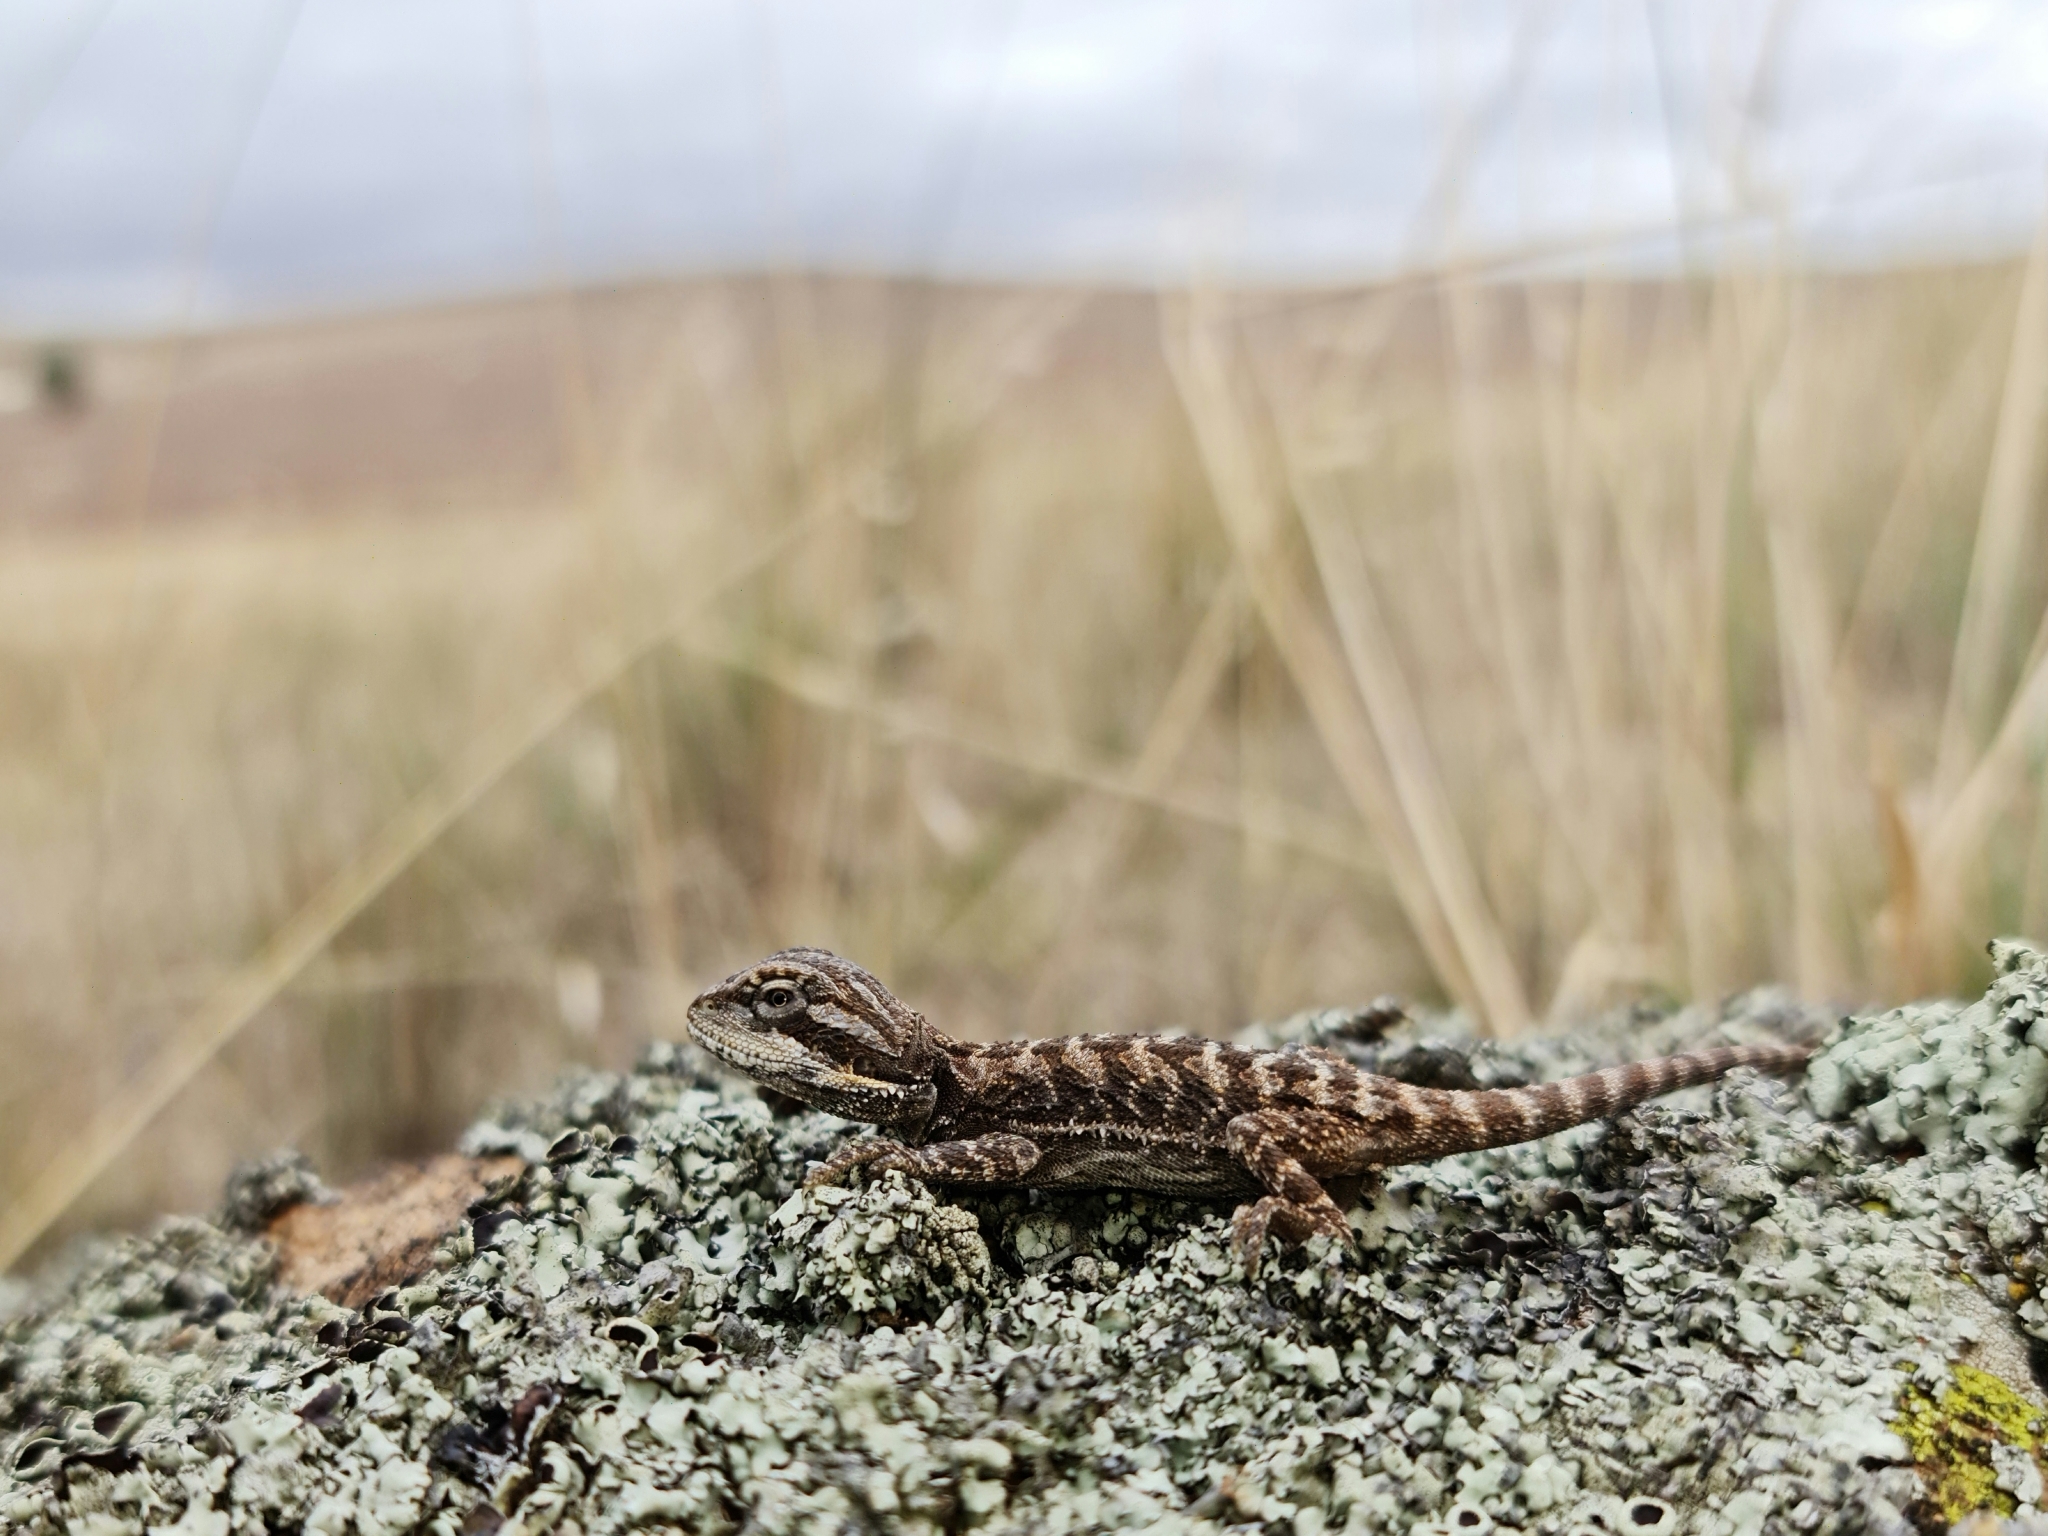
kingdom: Animalia
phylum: Chordata
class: Squamata
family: Agamidae
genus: Pogona
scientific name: Pogona vitticeps
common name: Central bearded dragon
